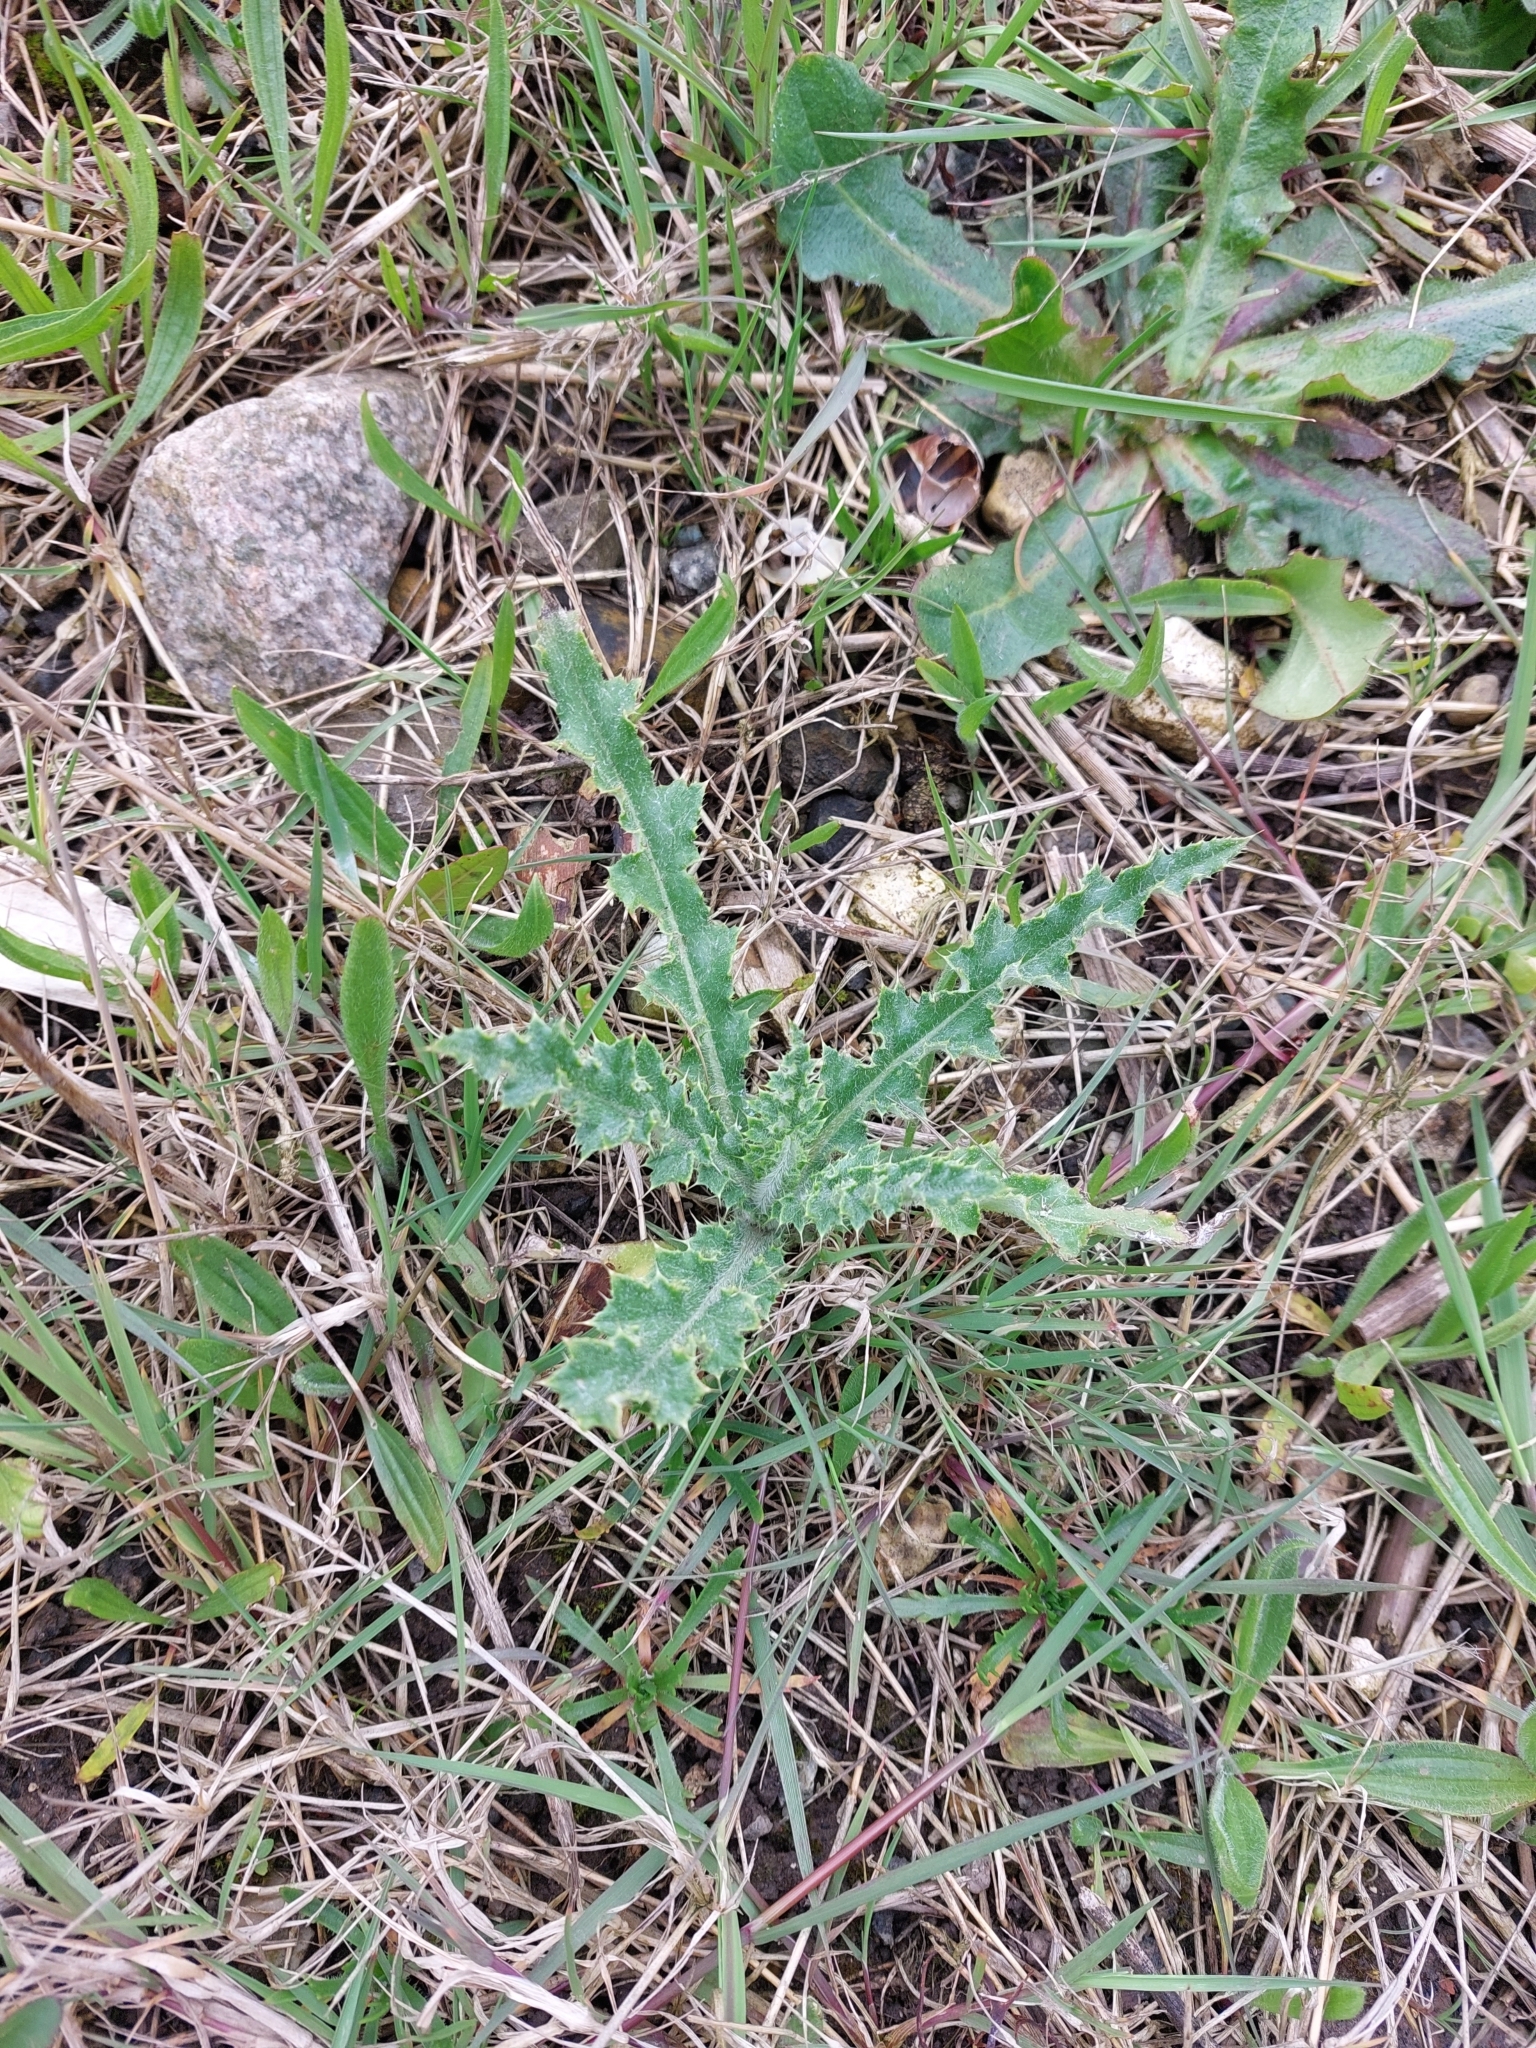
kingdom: Plantae
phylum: Tracheophyta
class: Magnoliopsida
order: Asterales
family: Asteraceae
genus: Cirsium
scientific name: Cirsium arvense
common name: Creeping thistle
